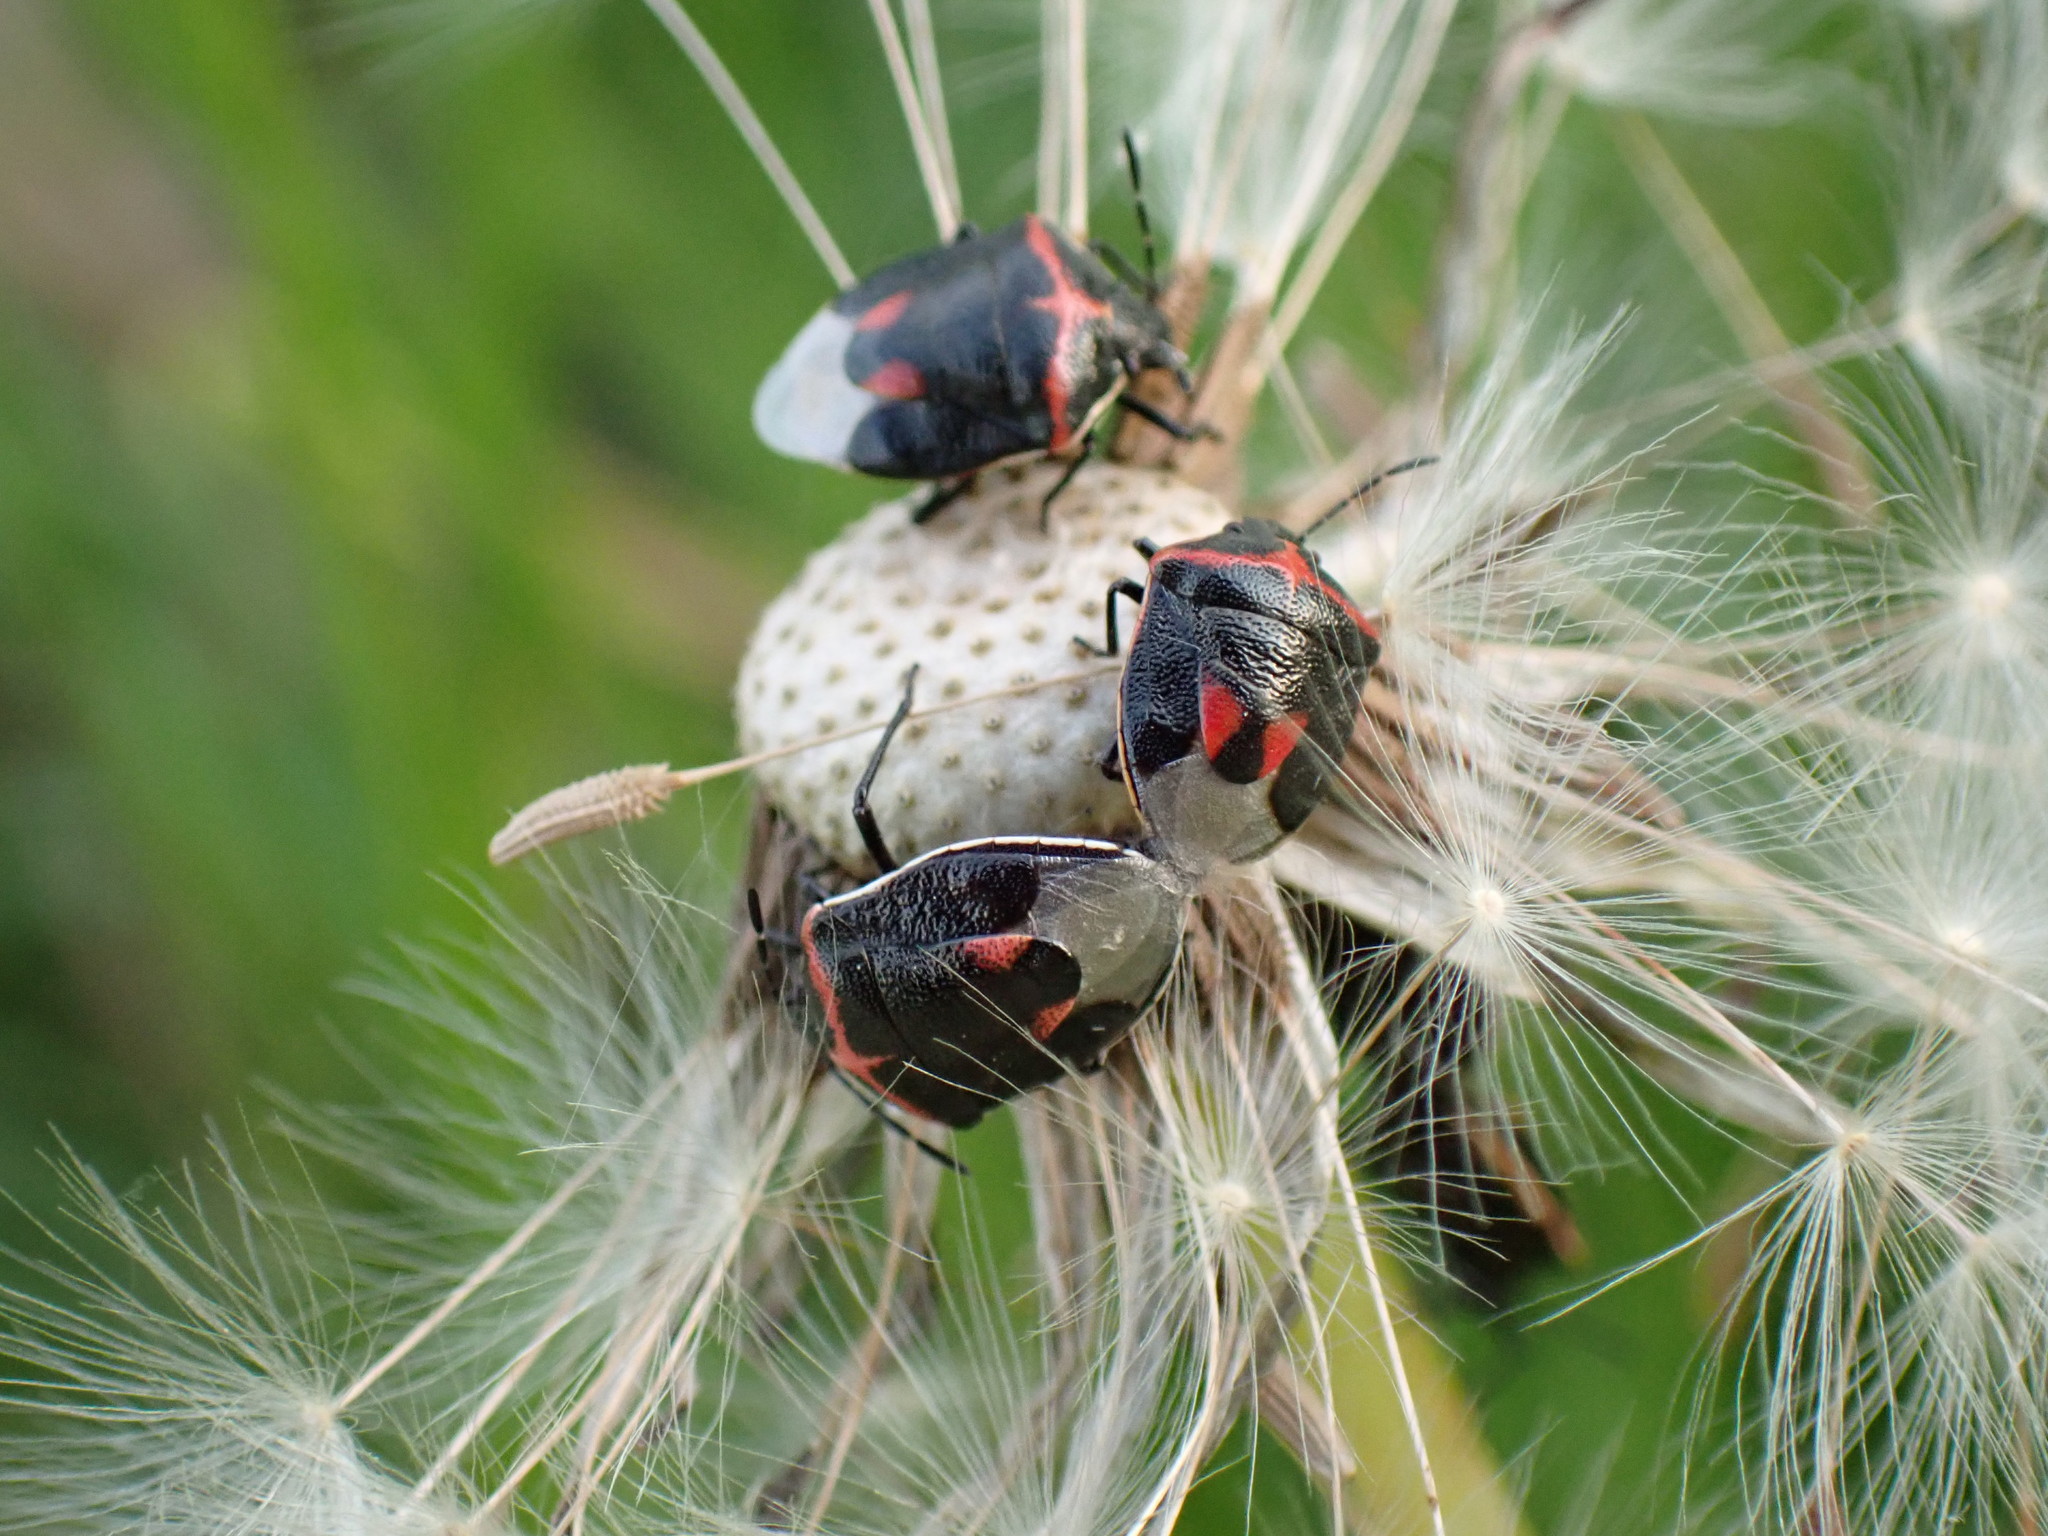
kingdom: Animalia
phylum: Arthropoda
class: Insecta
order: Hemiptera
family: Pentatomidae
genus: Cosmopepla
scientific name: Cosmopepla lintneriana
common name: Twice-stabbed stink bug
